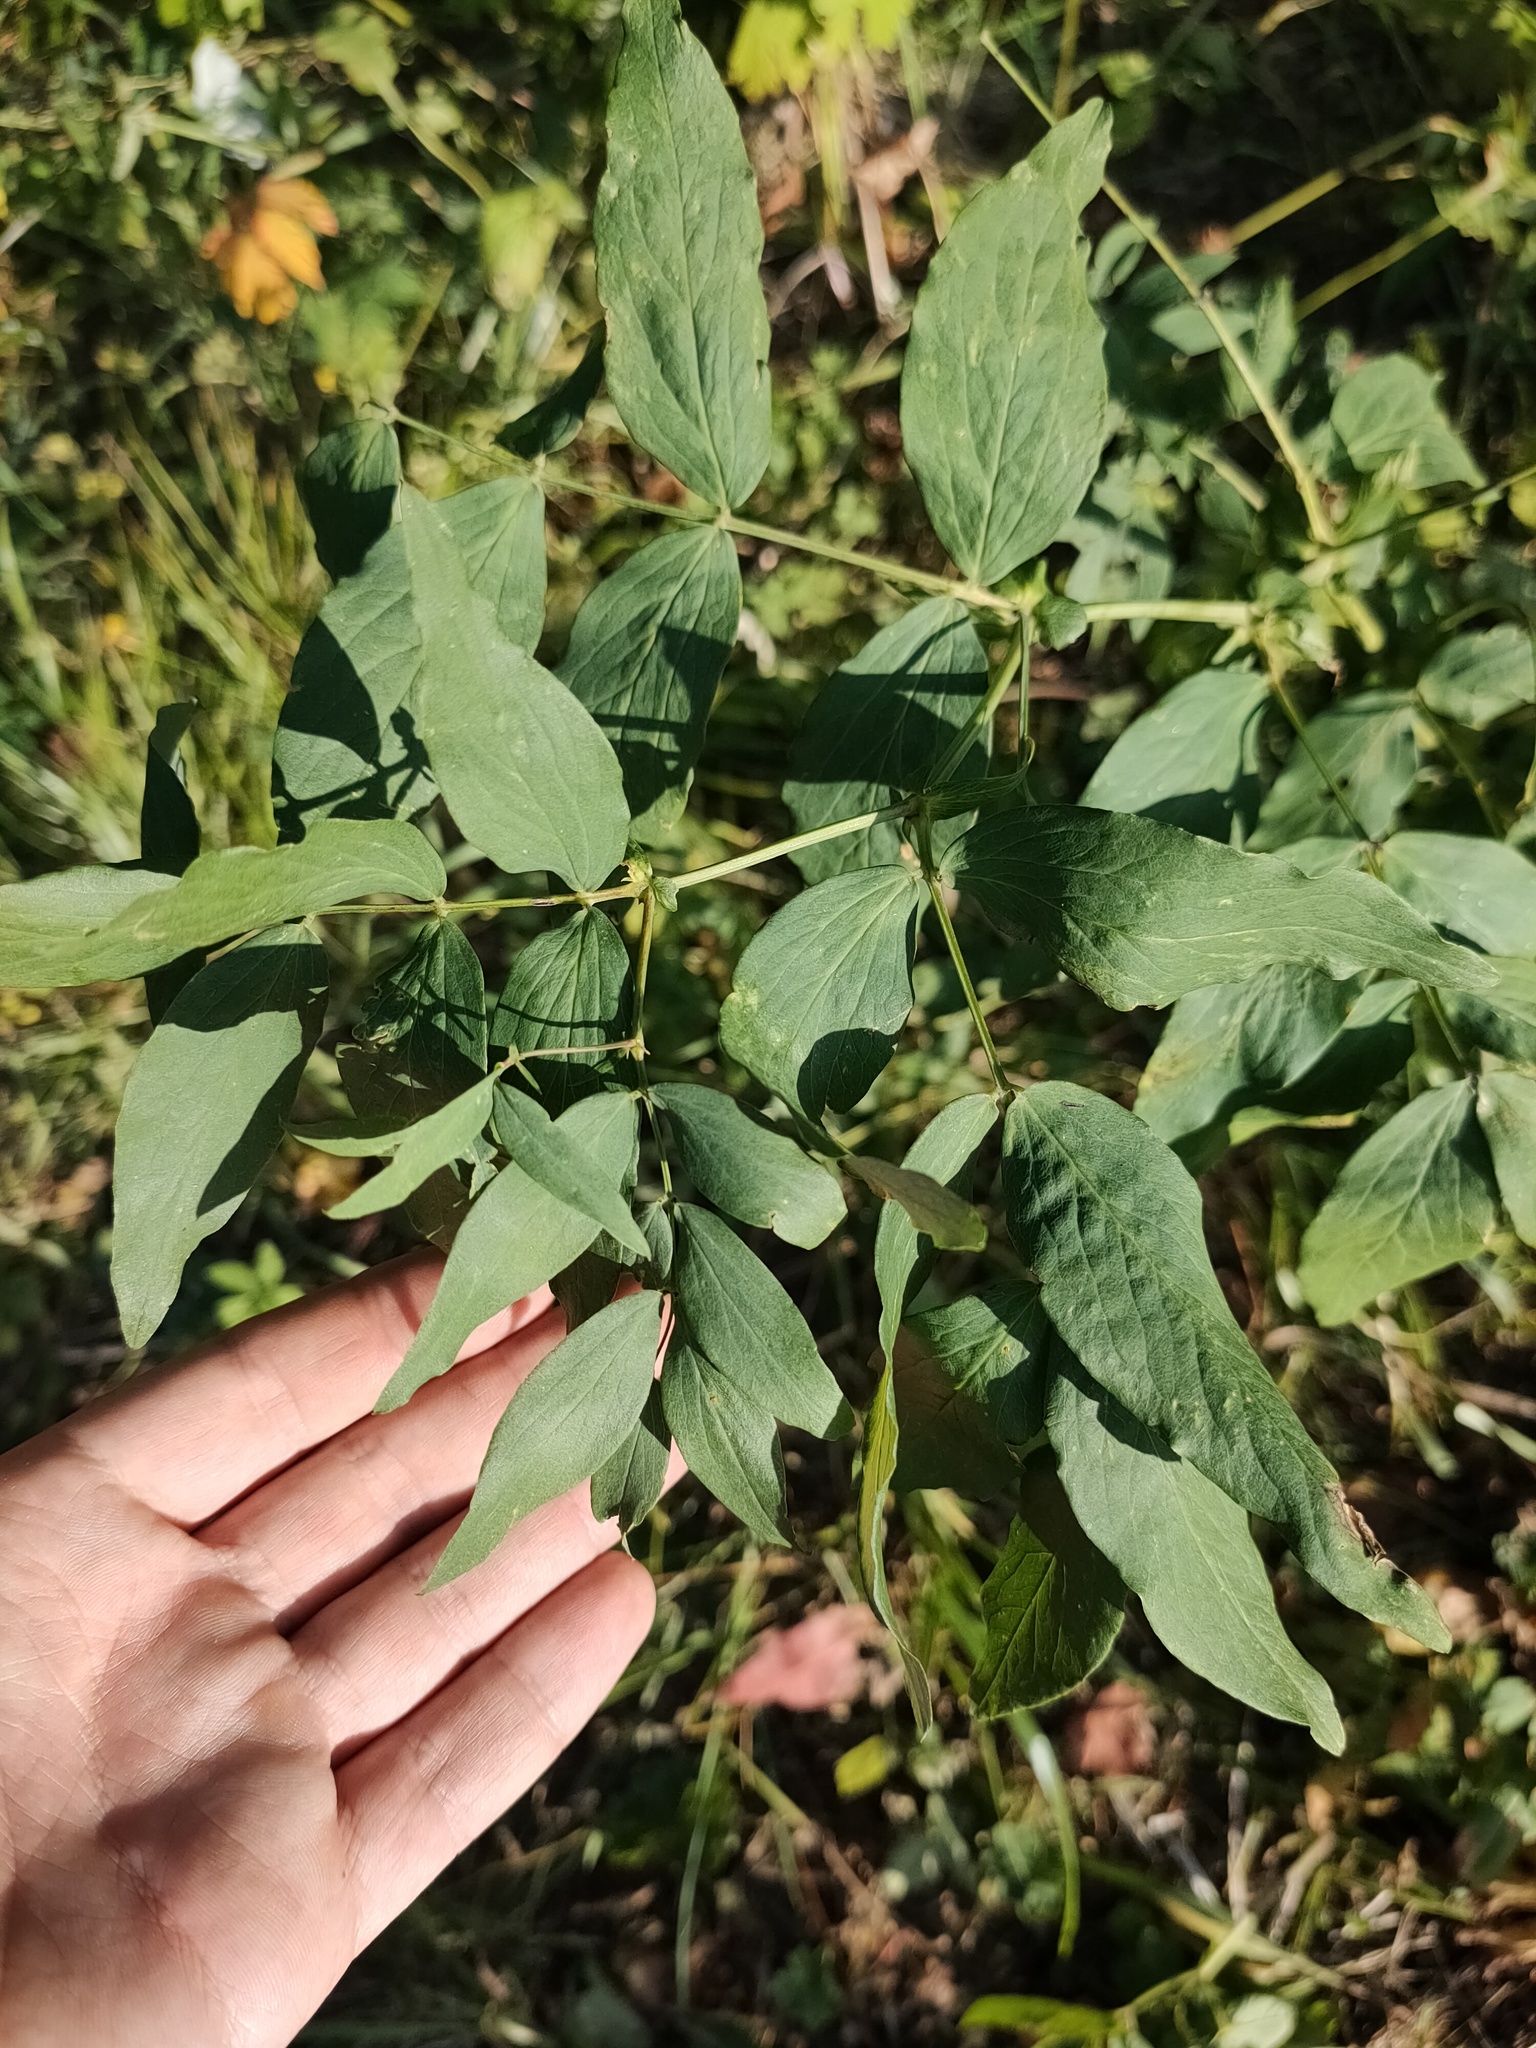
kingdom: Plantae
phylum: Tracheophyta
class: Magnoliopsida
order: Fabales
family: Fabaceae
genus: Lathyrus
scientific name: Lathyrus gmelinii
